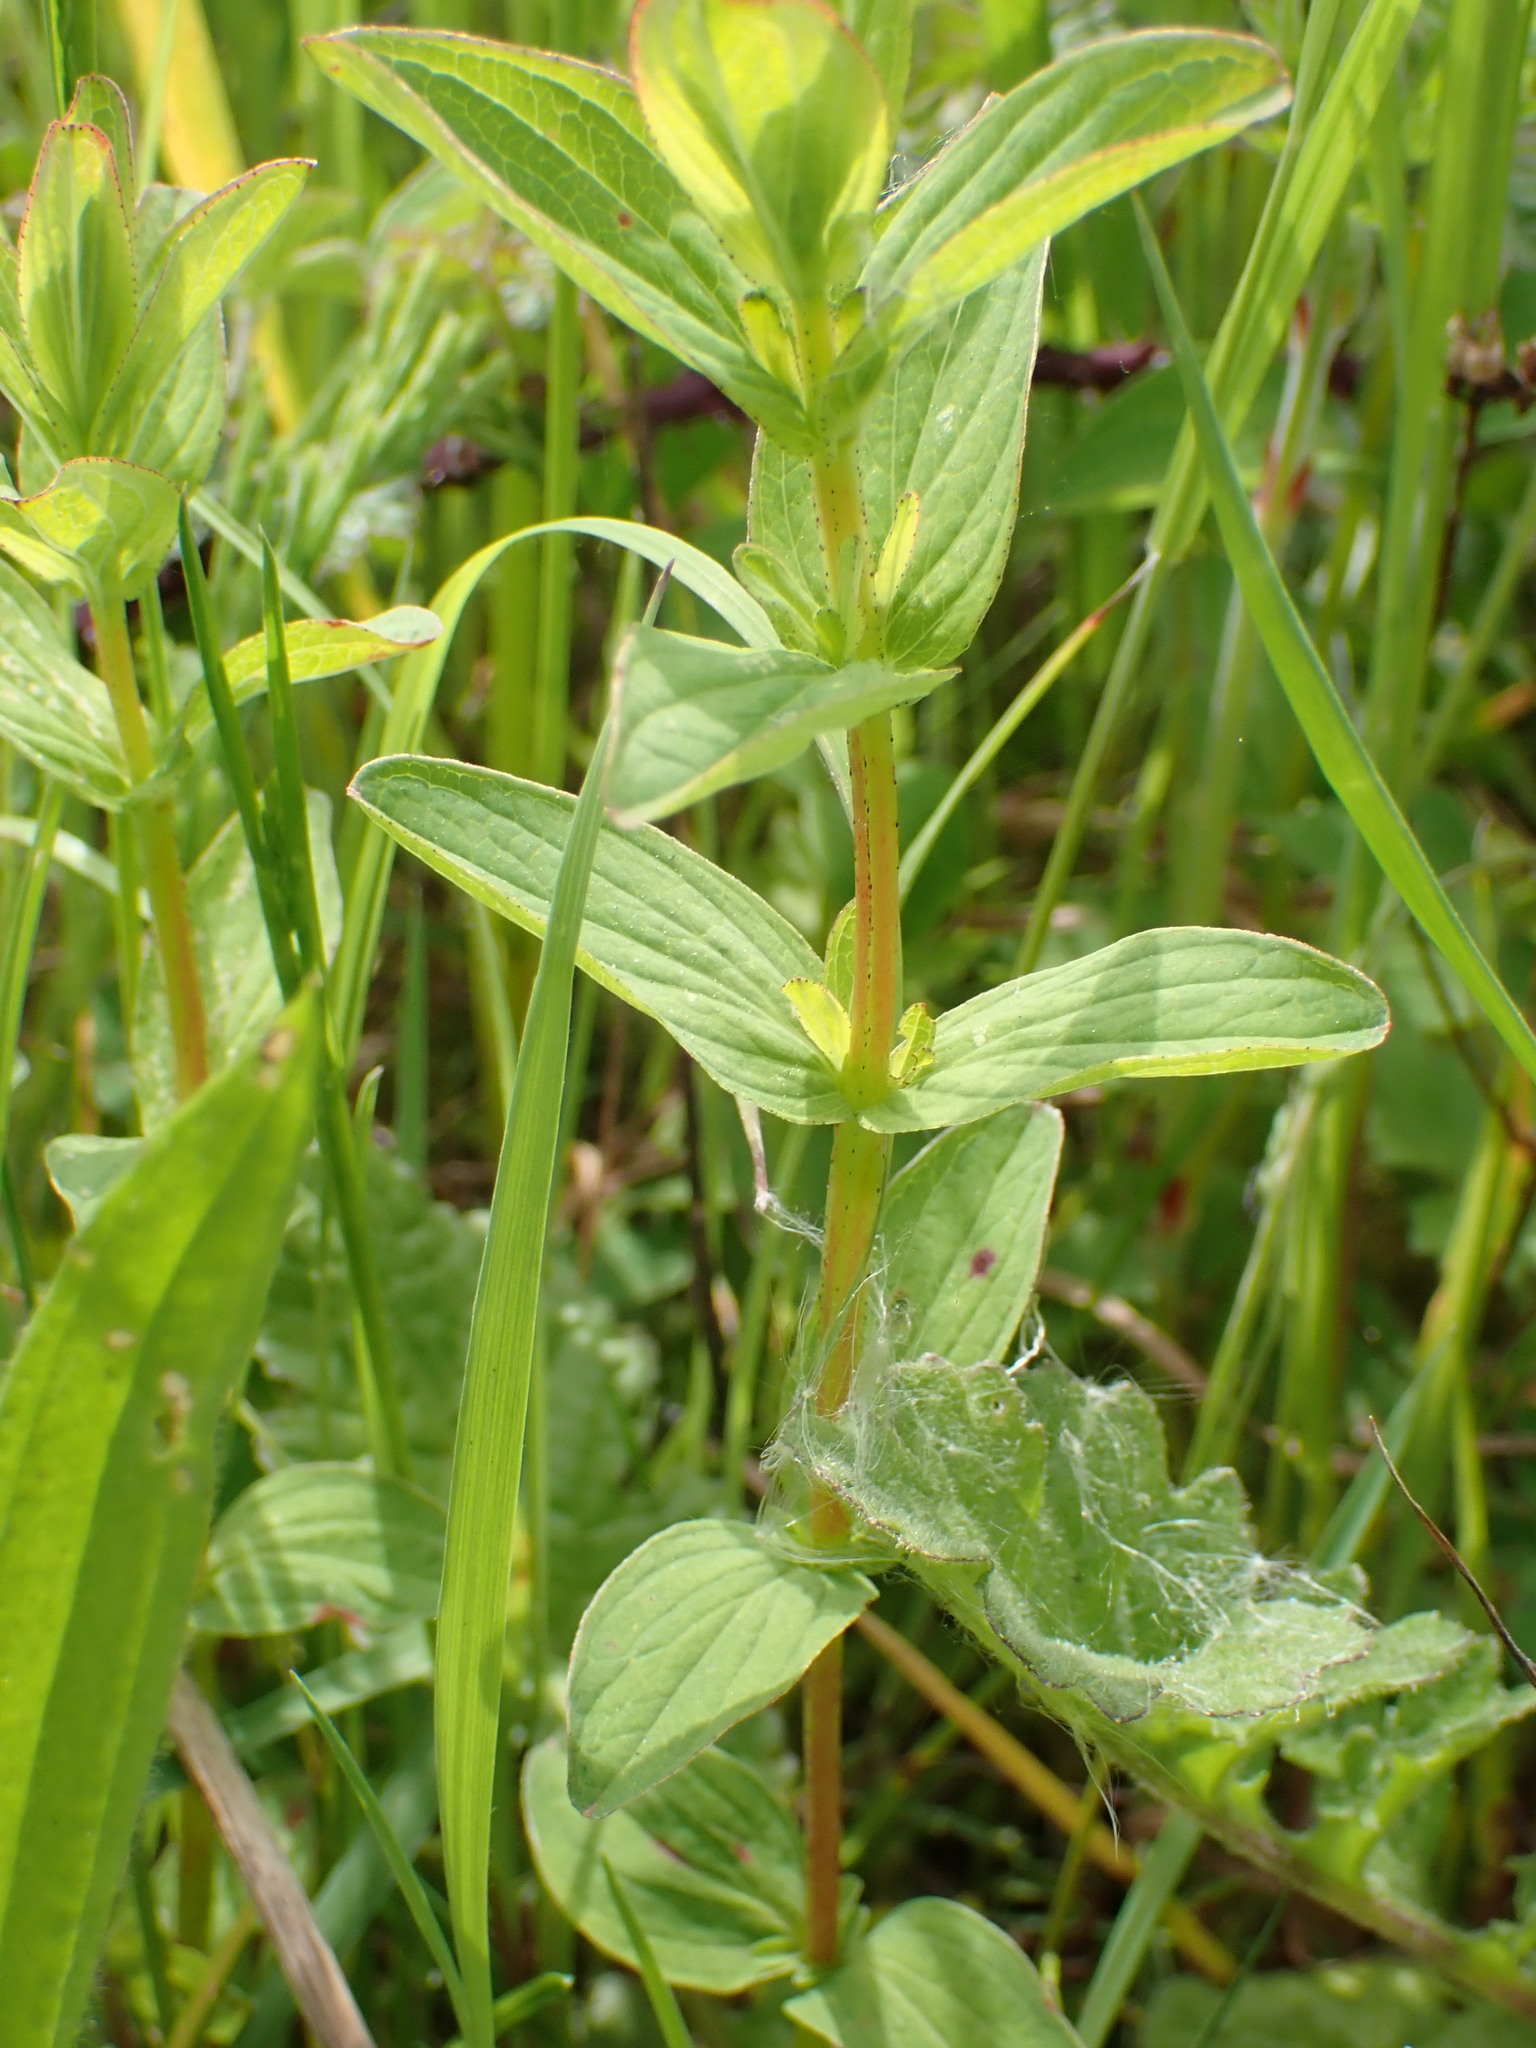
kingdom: Plantae
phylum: Tracheophyta
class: Magnoliopsida
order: Malpighiales
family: Hypericaceae
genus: Hypericum
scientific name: Hypericum tetrapterum
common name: Square-stalked st. john's-wort
